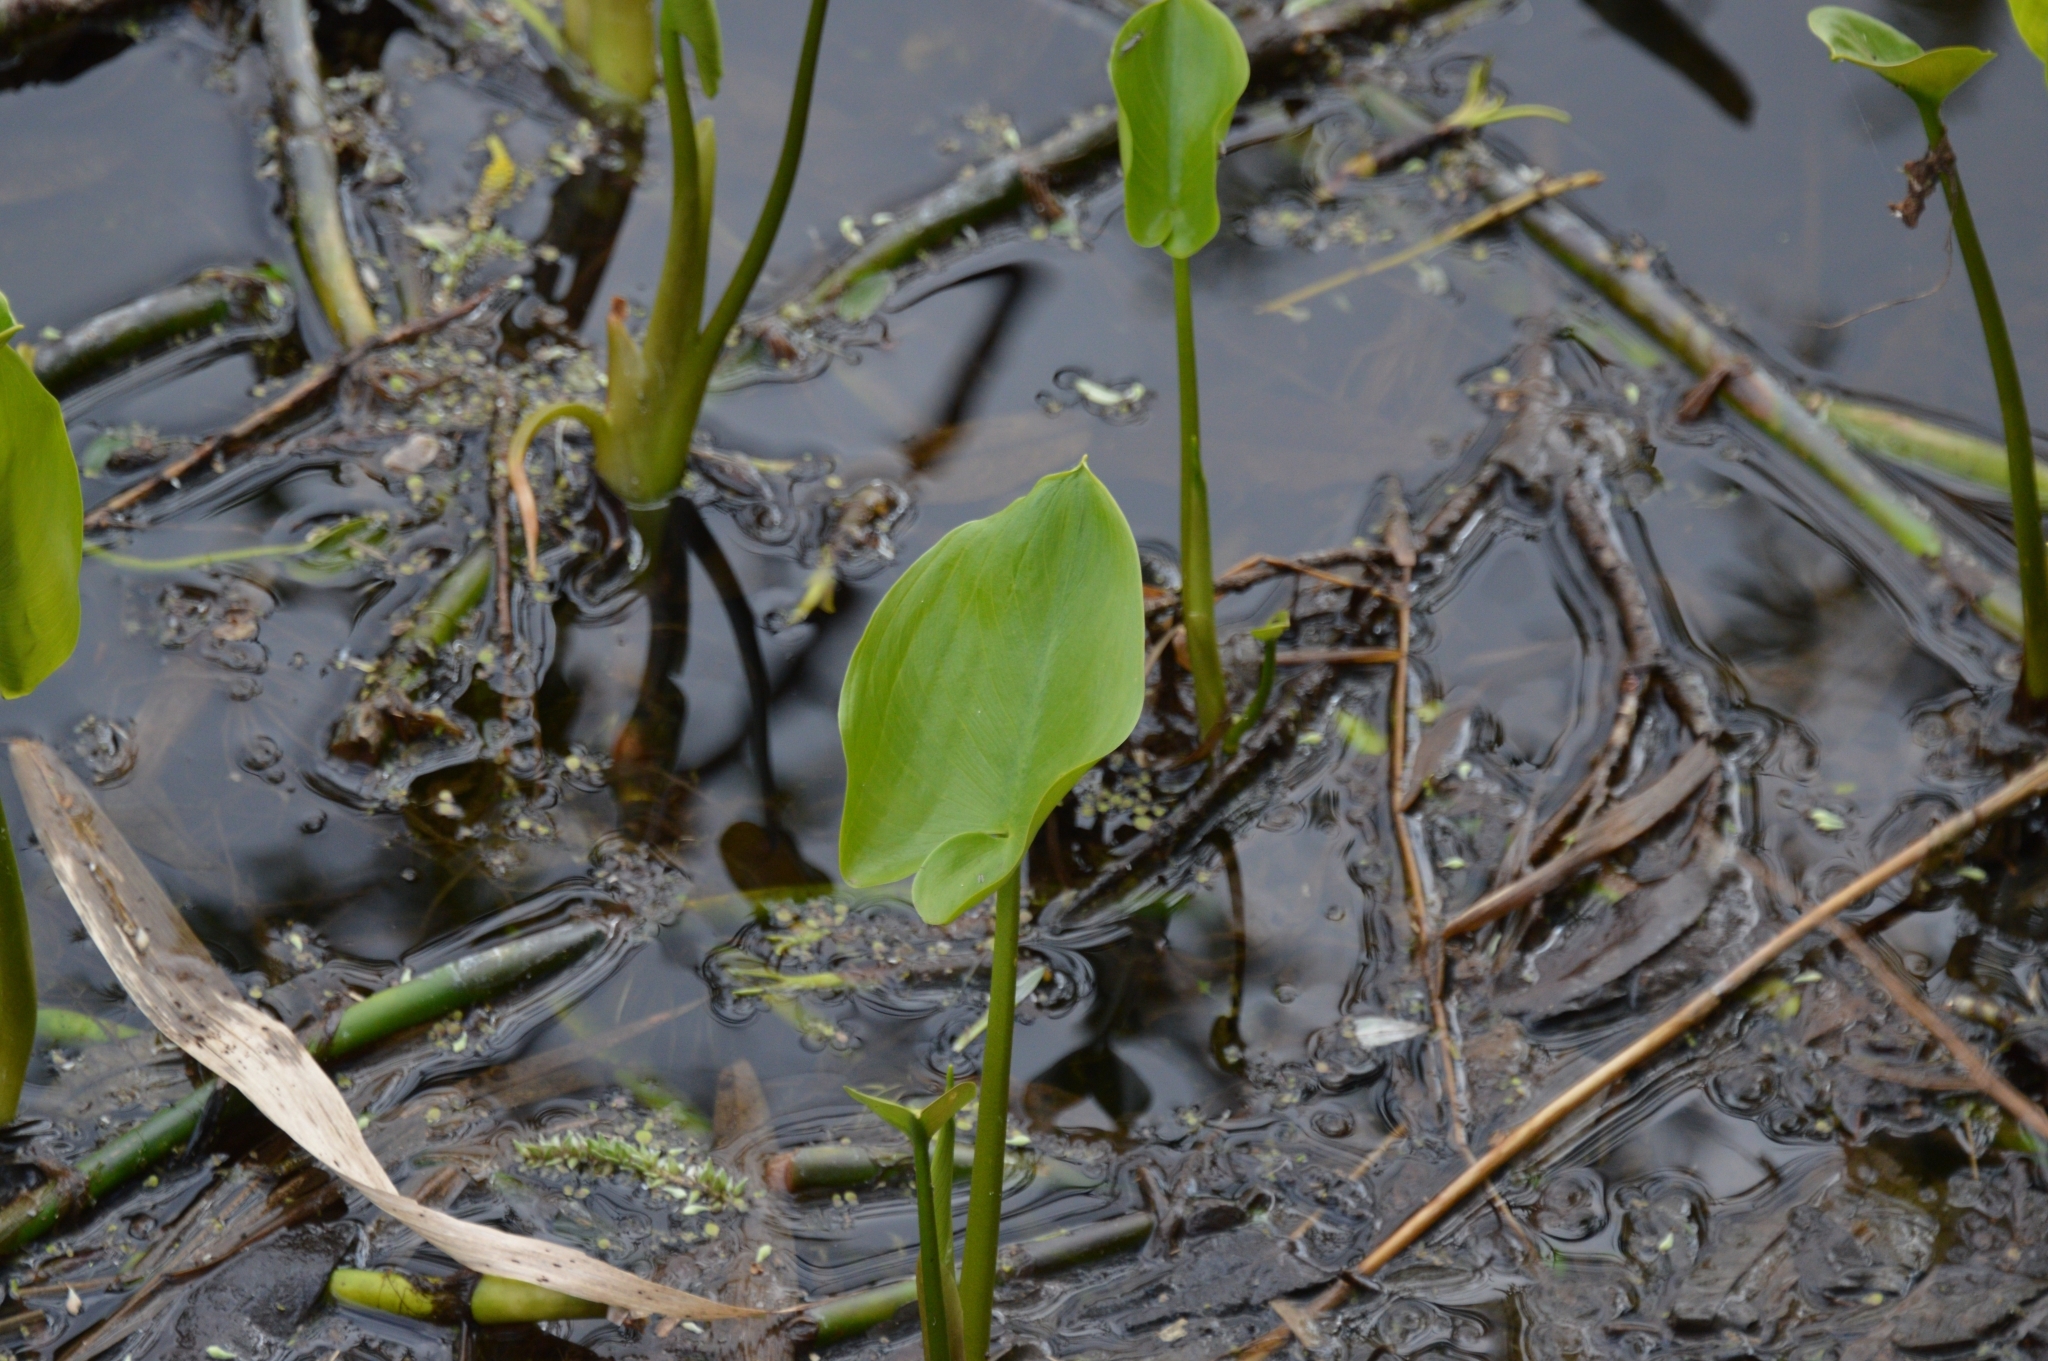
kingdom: Plantae
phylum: Tracheophyta
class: Liliopsida
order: Alismatales
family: Araceae
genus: Calla
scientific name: Calla palustris
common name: Bog arum
